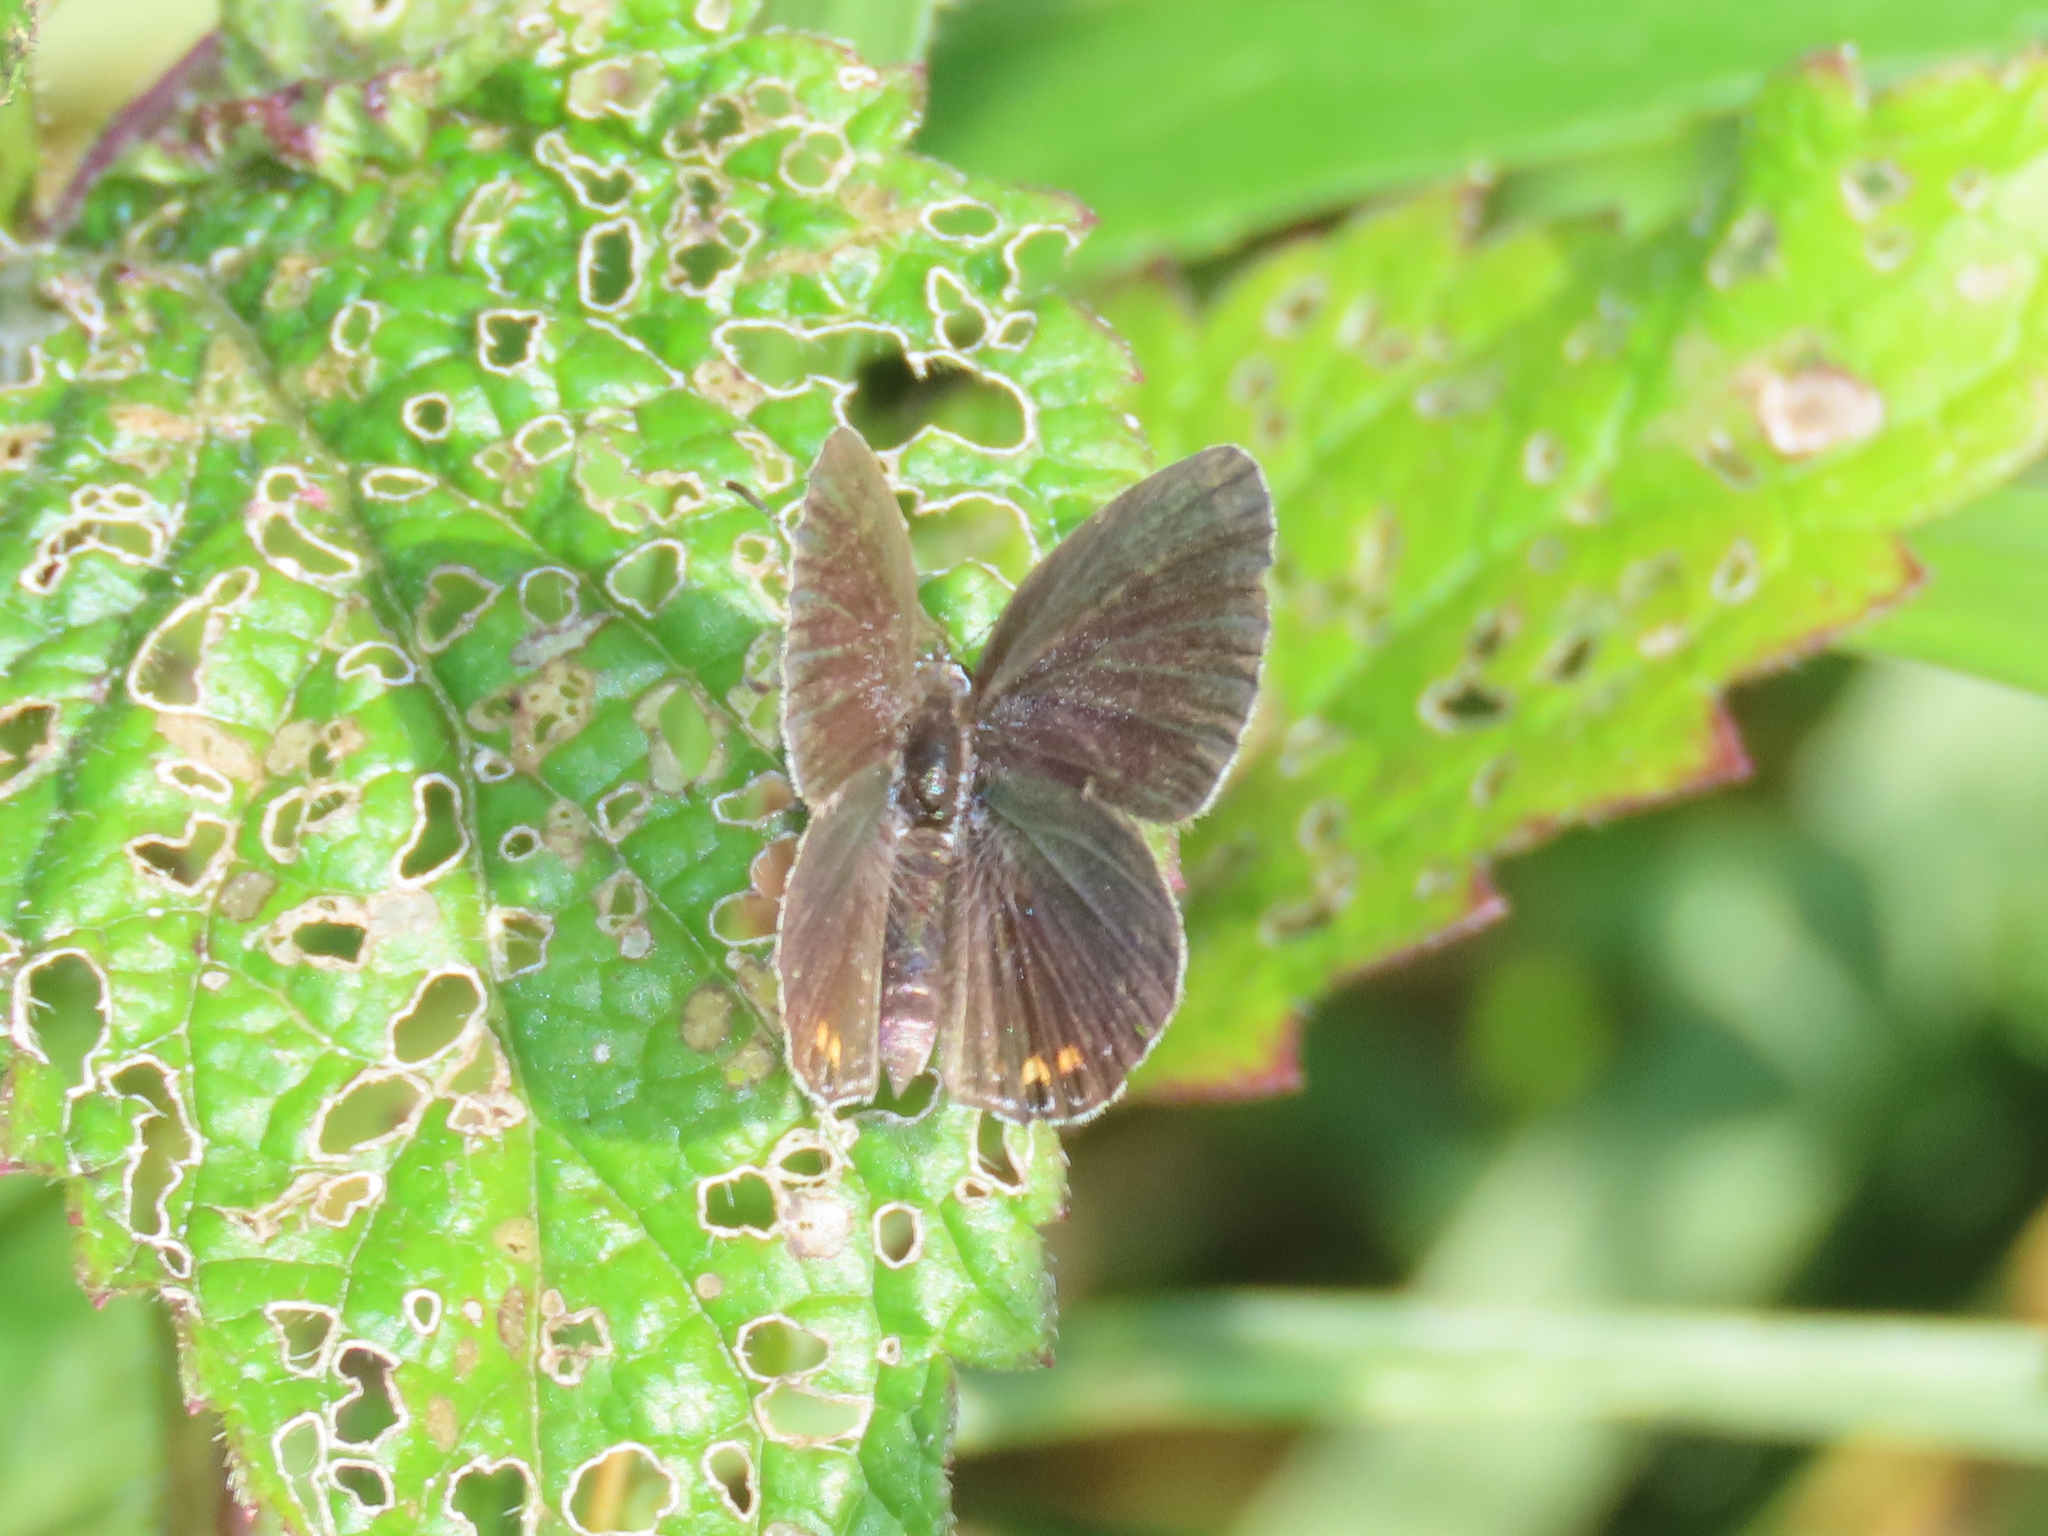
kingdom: Animalia
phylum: Arthropoda
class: Insecta
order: Lepidoptera
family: Lycaenidae
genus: Elkalyce
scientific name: Elkalyce comyntas
